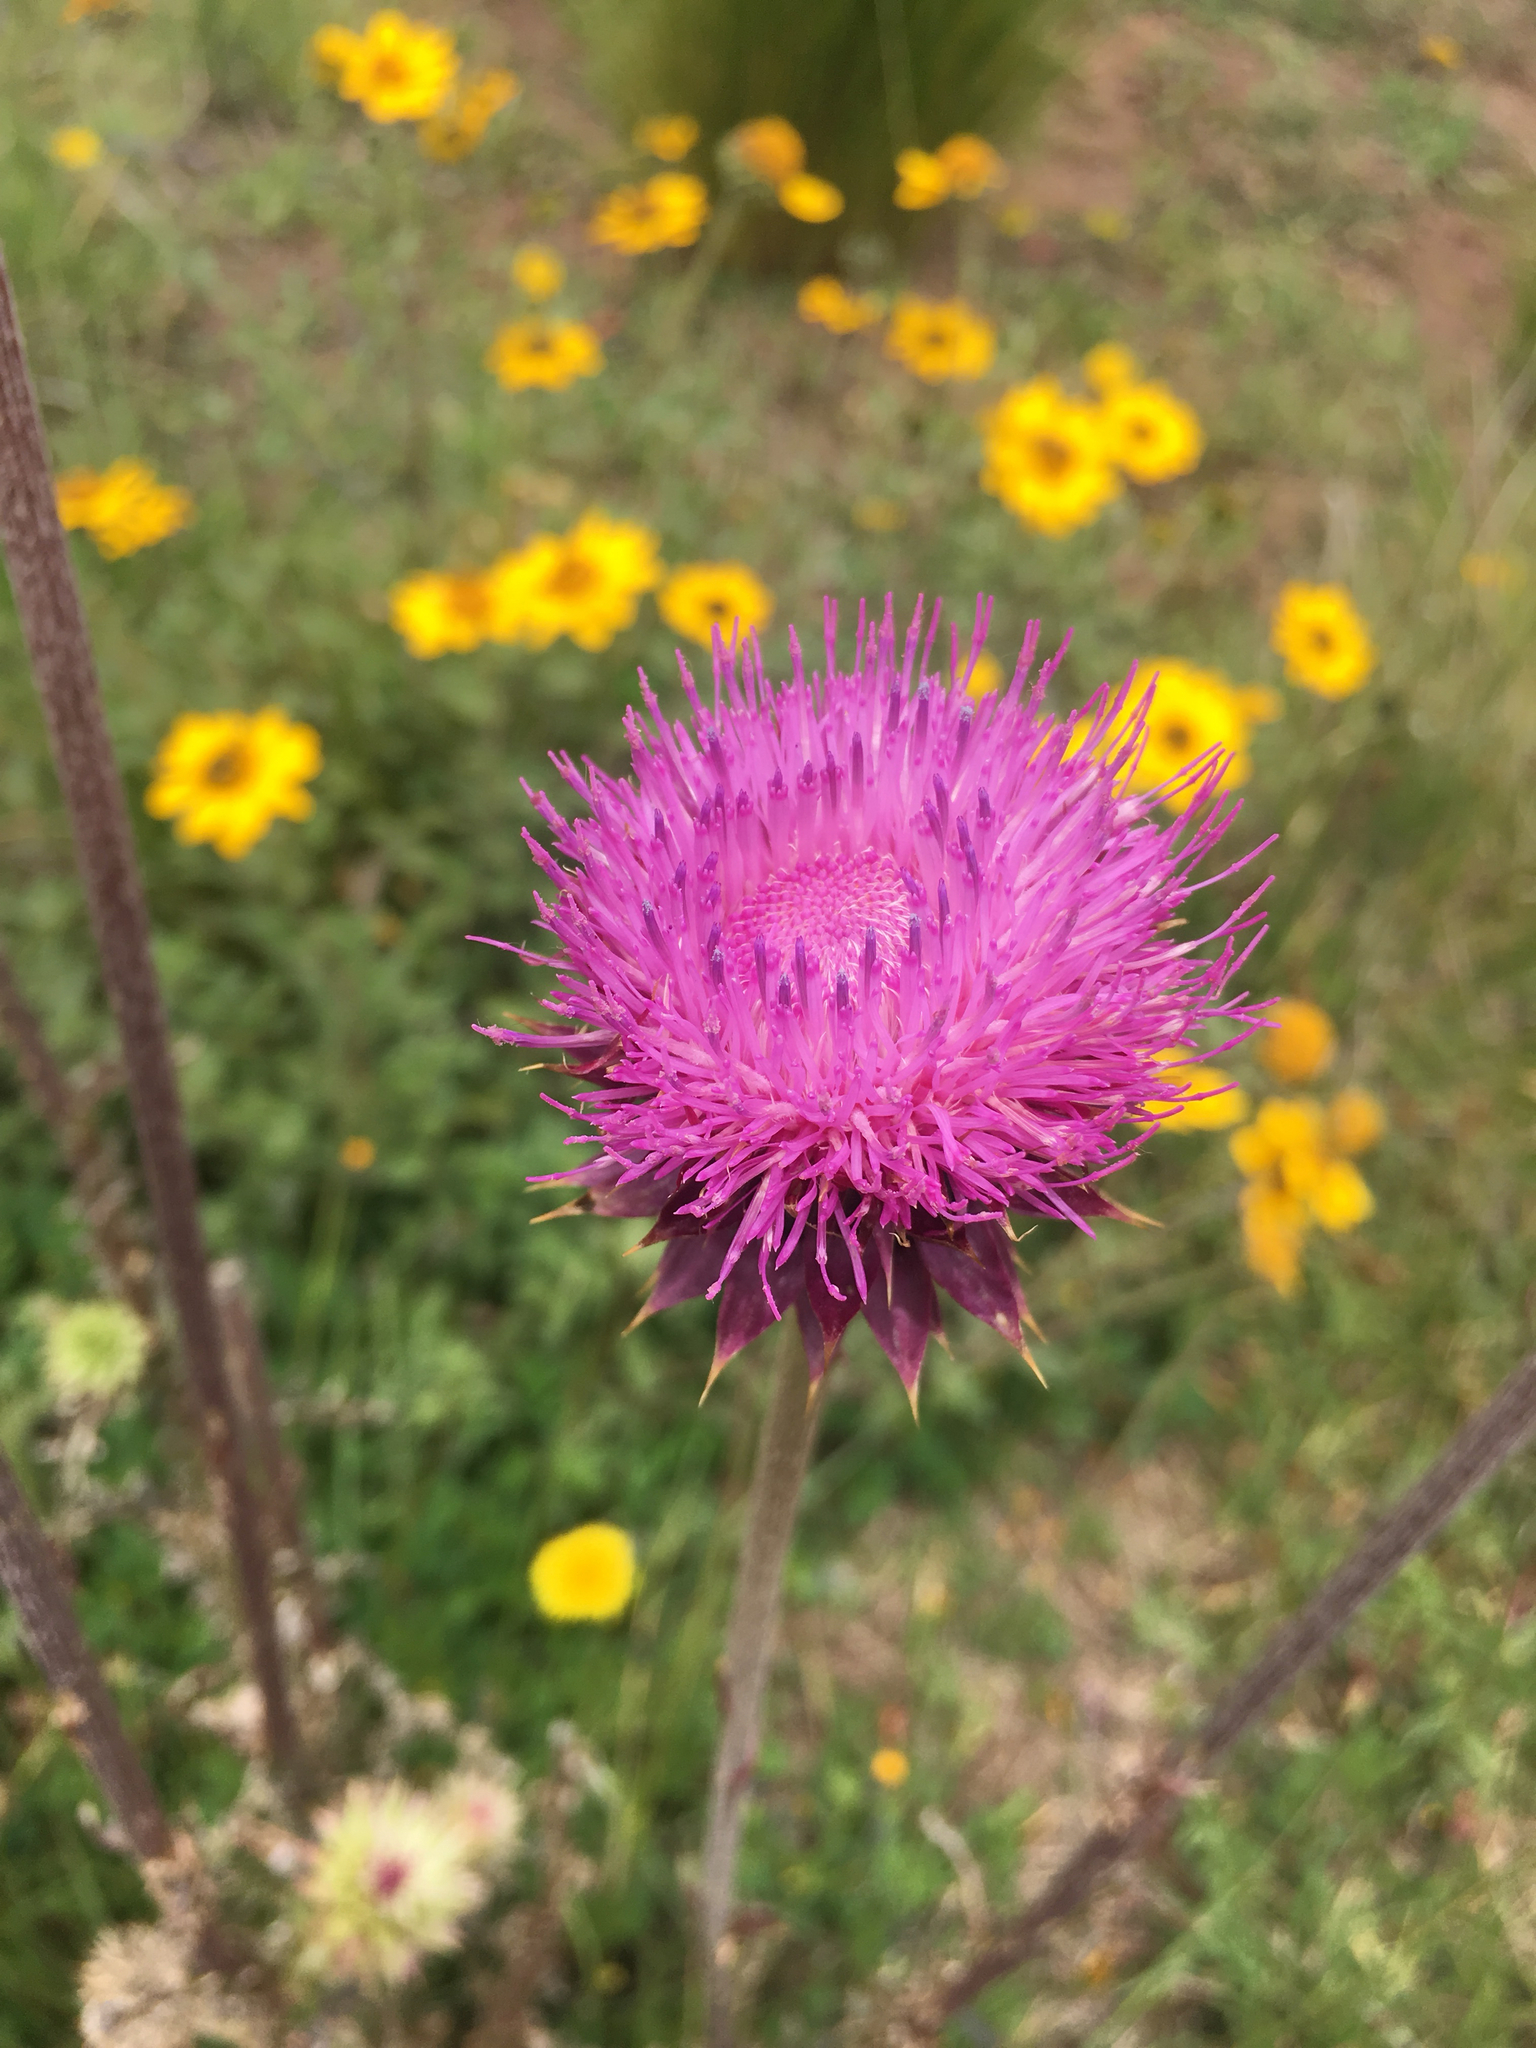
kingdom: Plantae
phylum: Tracheophyta
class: Magnoliopsida
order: Asterales
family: Asteraceae
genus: Carduus
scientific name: Carduus nutans
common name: Musk thistle
